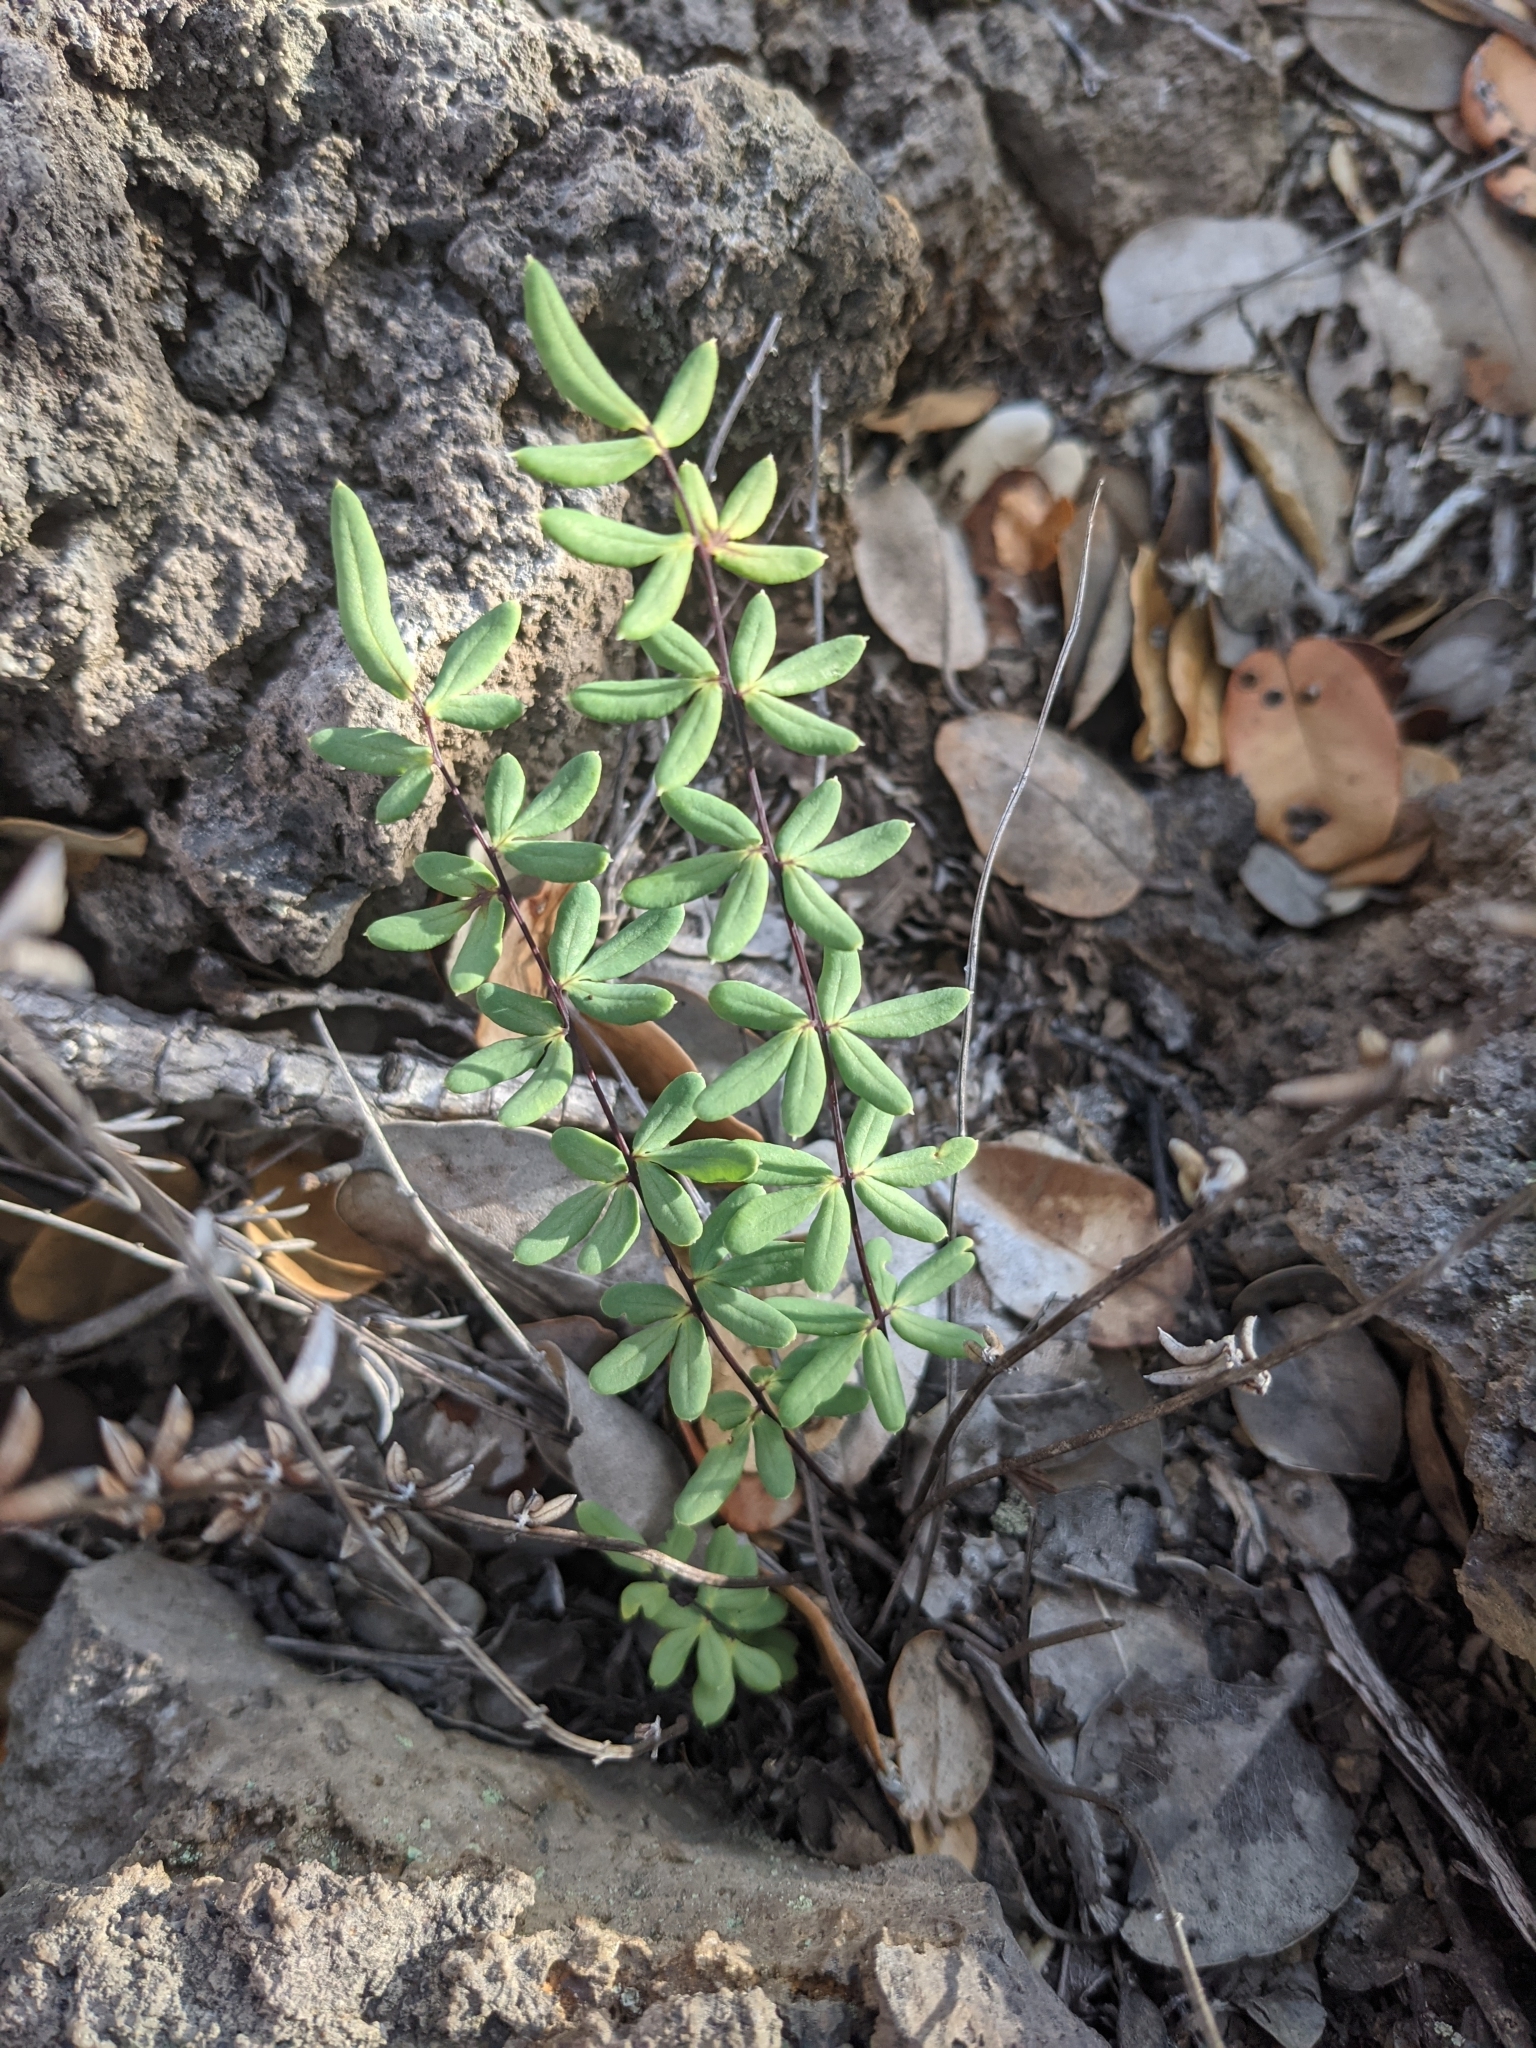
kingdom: Plantae
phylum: Tracheophyta
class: Polypodiopsida
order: Polypodiales
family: Pteridaceae
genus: Pellaea
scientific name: Pellaea ternifolia
